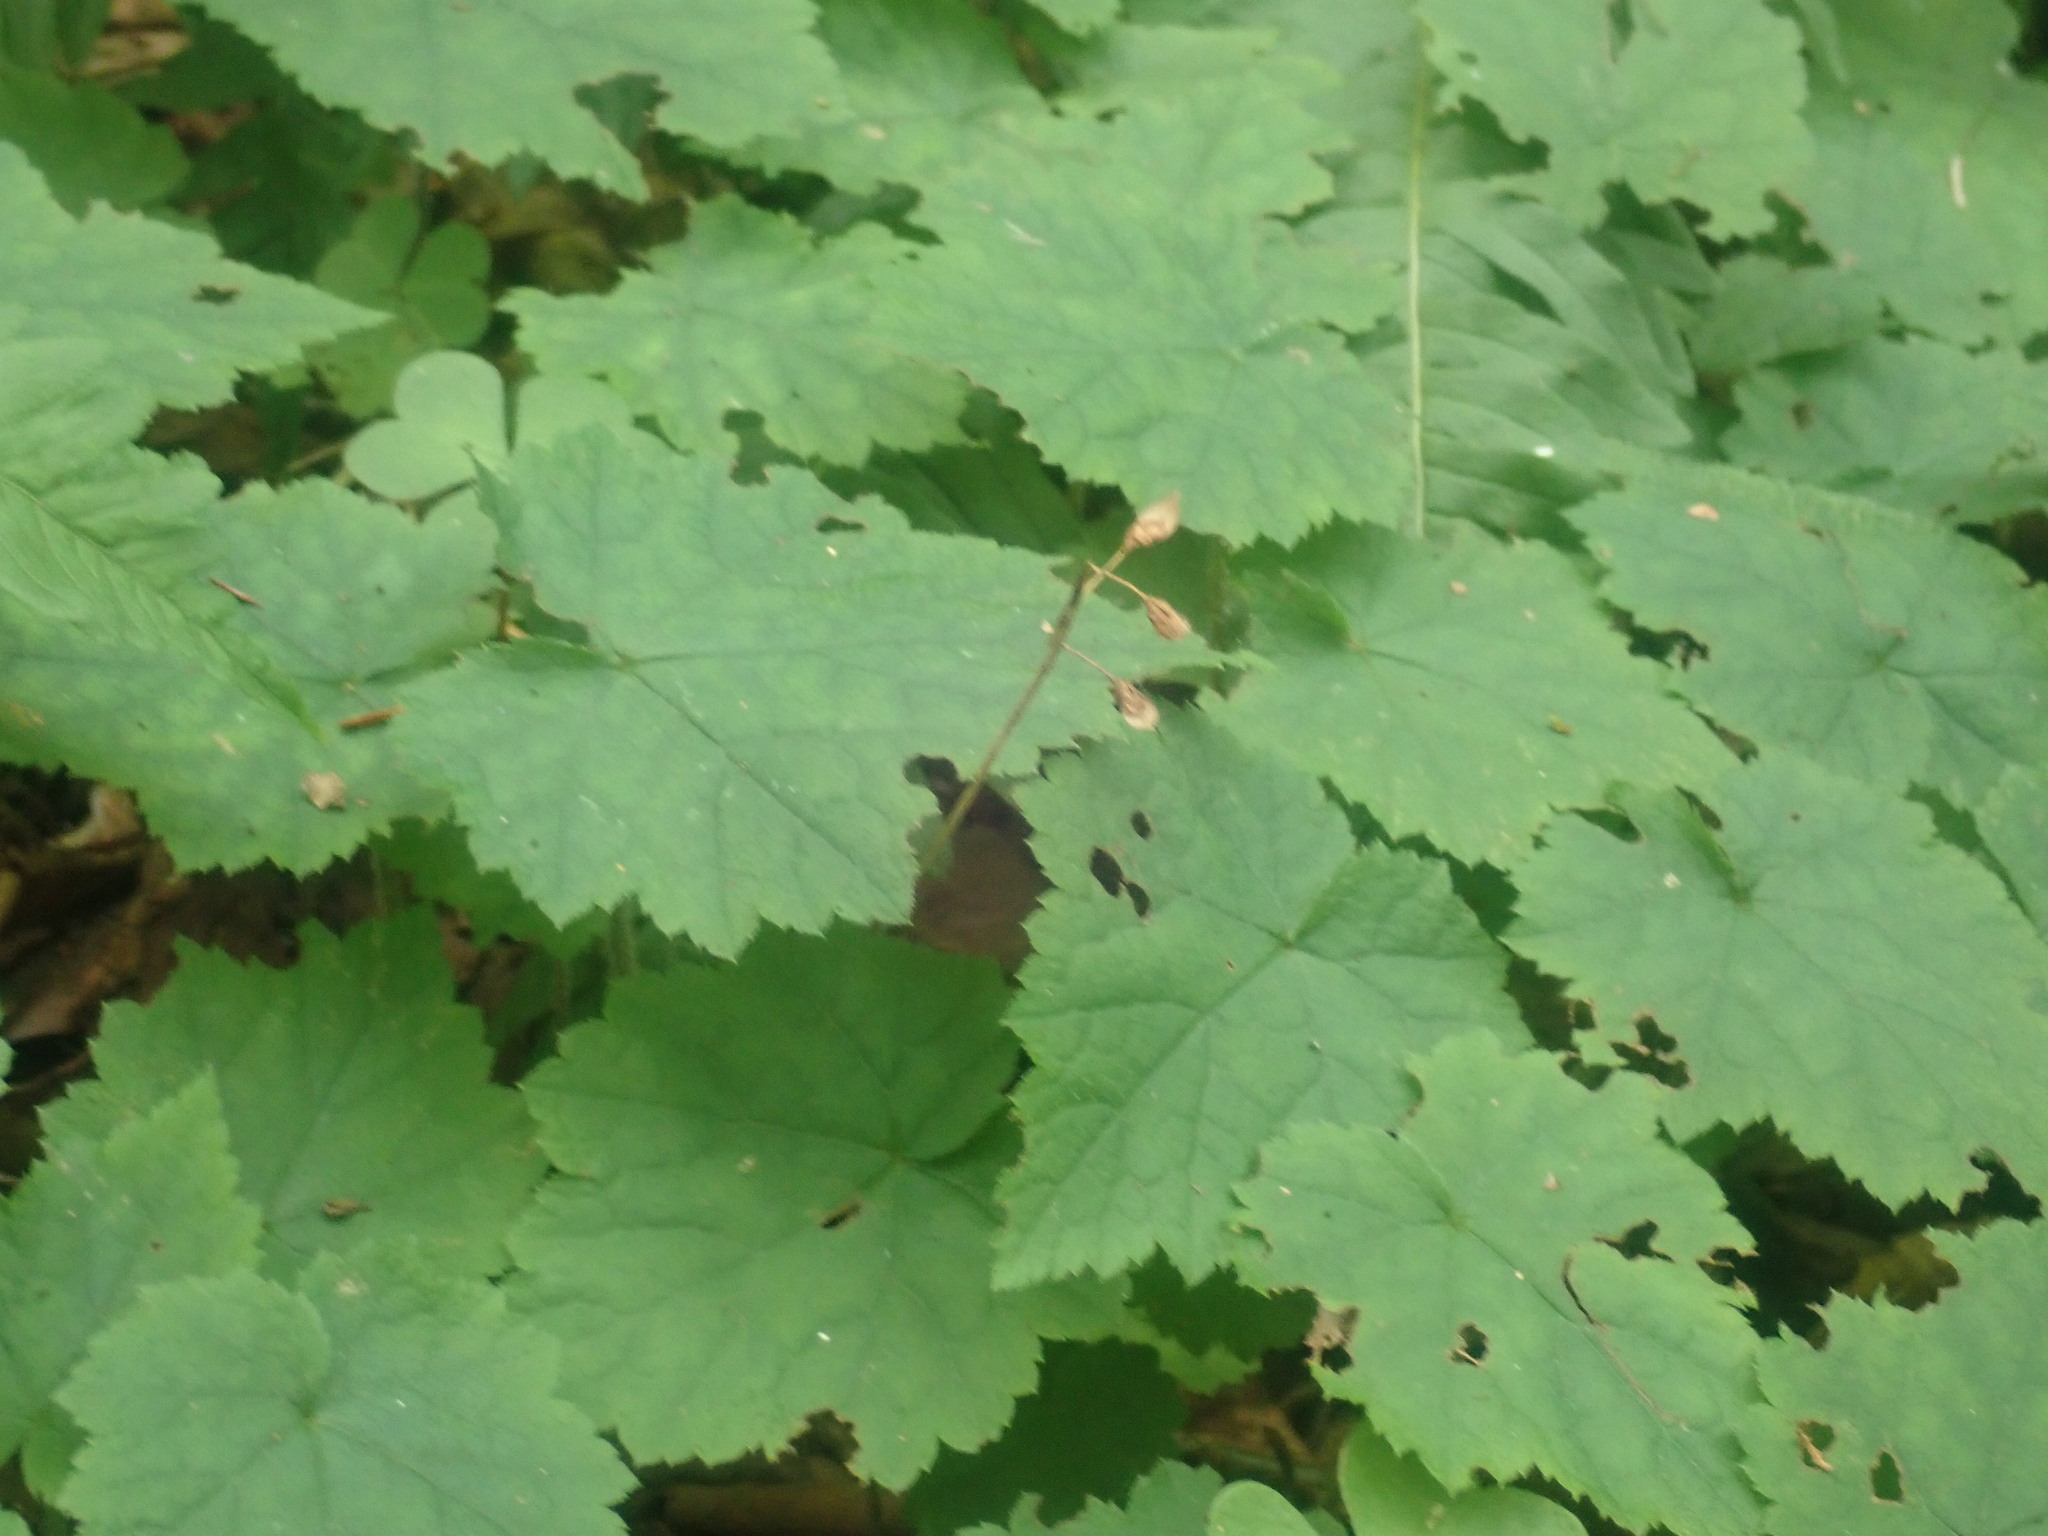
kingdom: Plantae
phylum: Tracheophyta
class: Magnoliopsida
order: Saxifragales
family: Saxifragaceae
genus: Tiarella
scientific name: Tiarella stolonifera
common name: Stoloniferous foamflower
